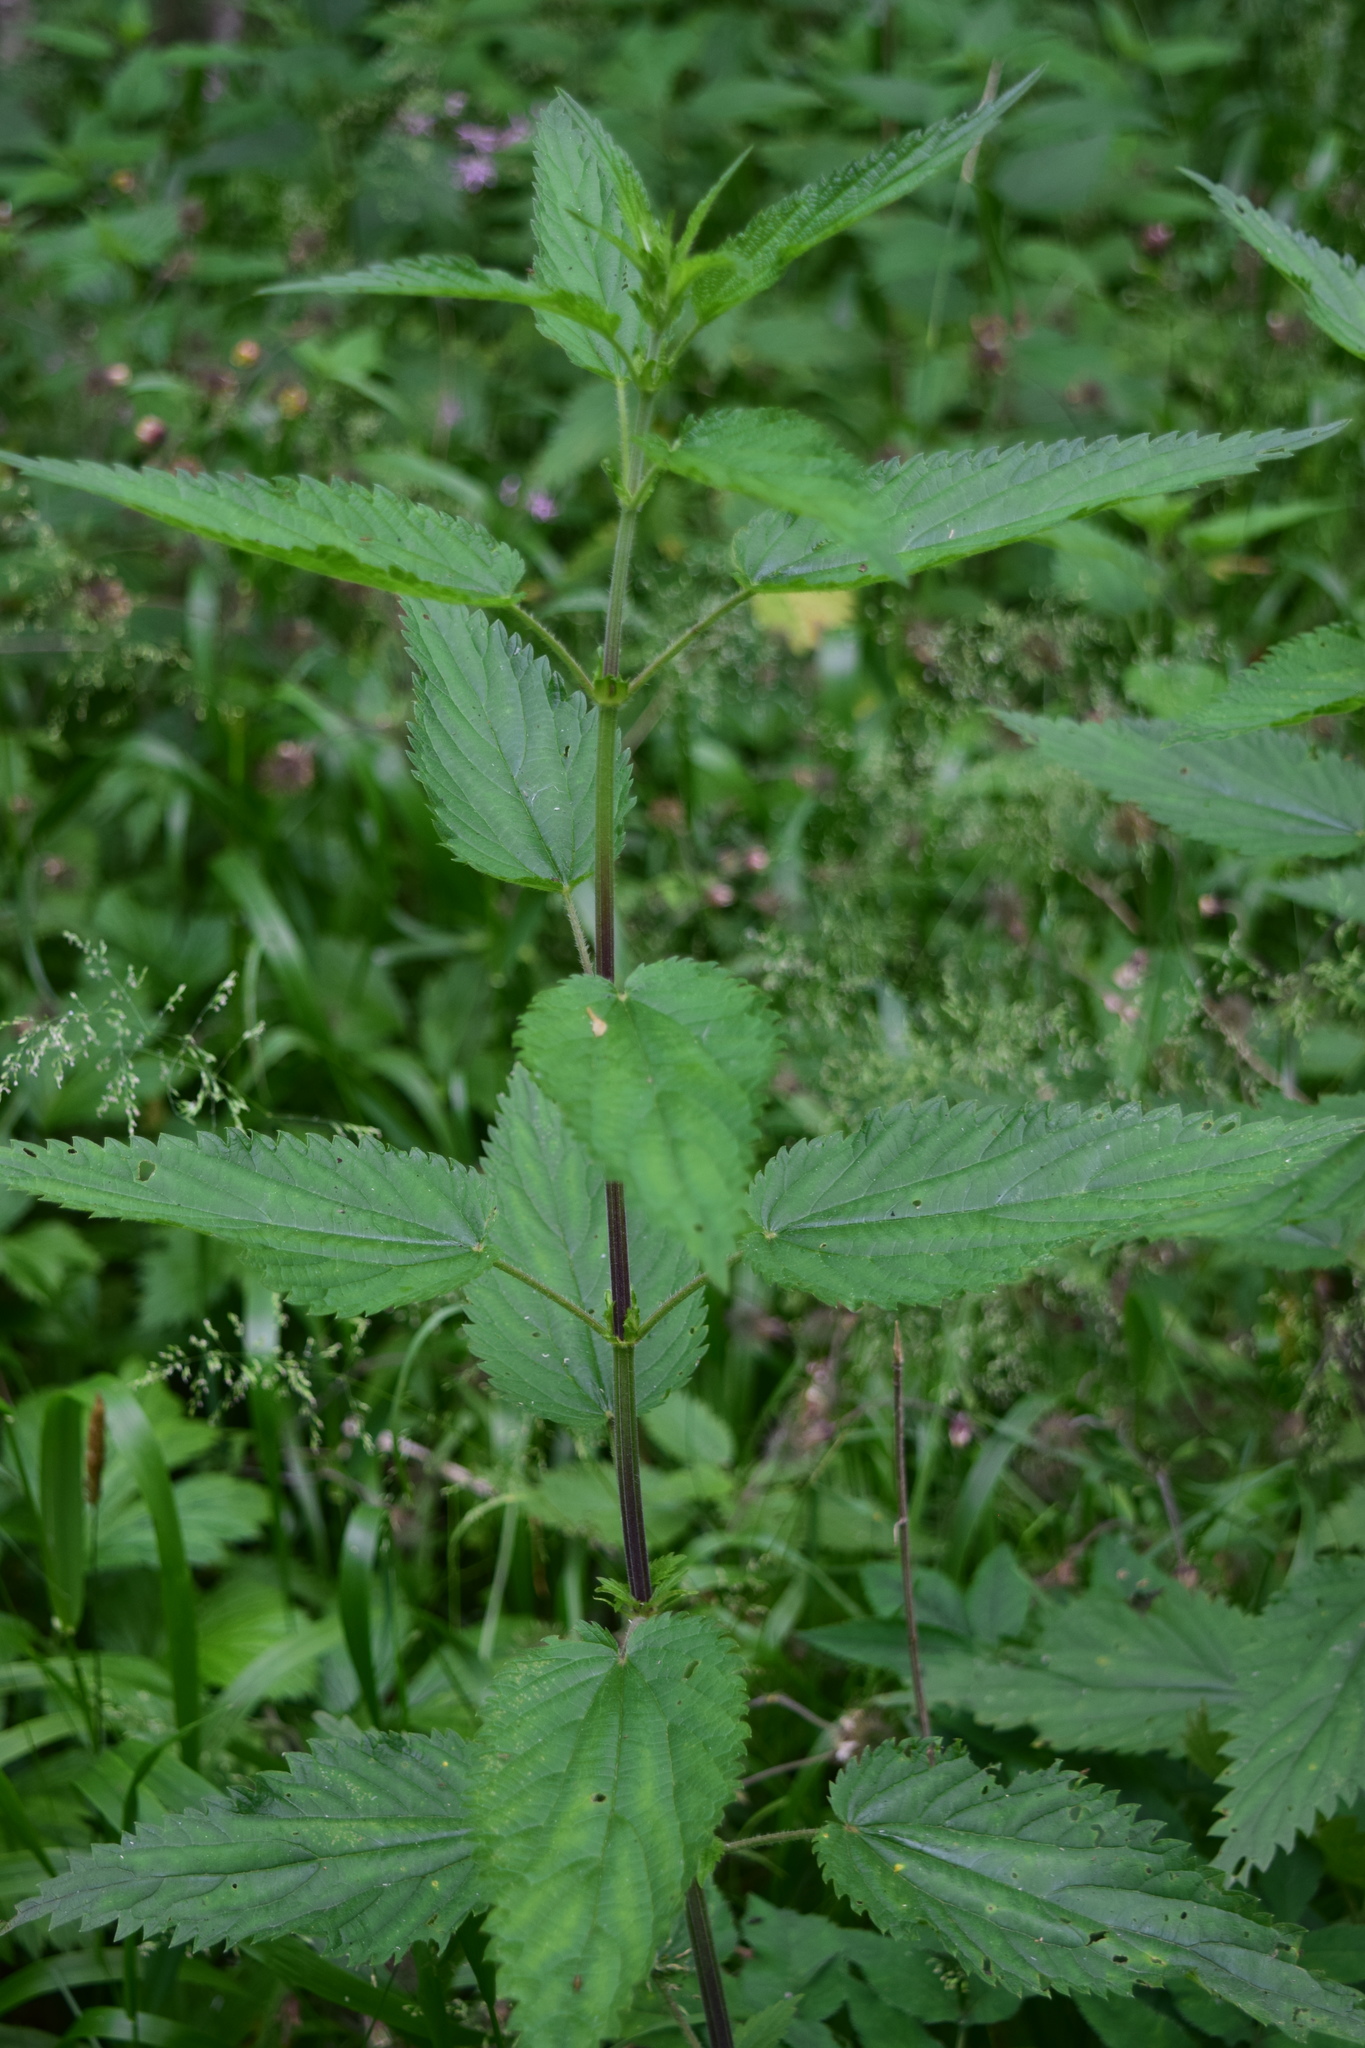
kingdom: Plantae
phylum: Tracheophyta
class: Magnoliopsida
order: Rosales
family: Urticaceae
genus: Urtica
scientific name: Urtica dioica
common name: Common nettle
